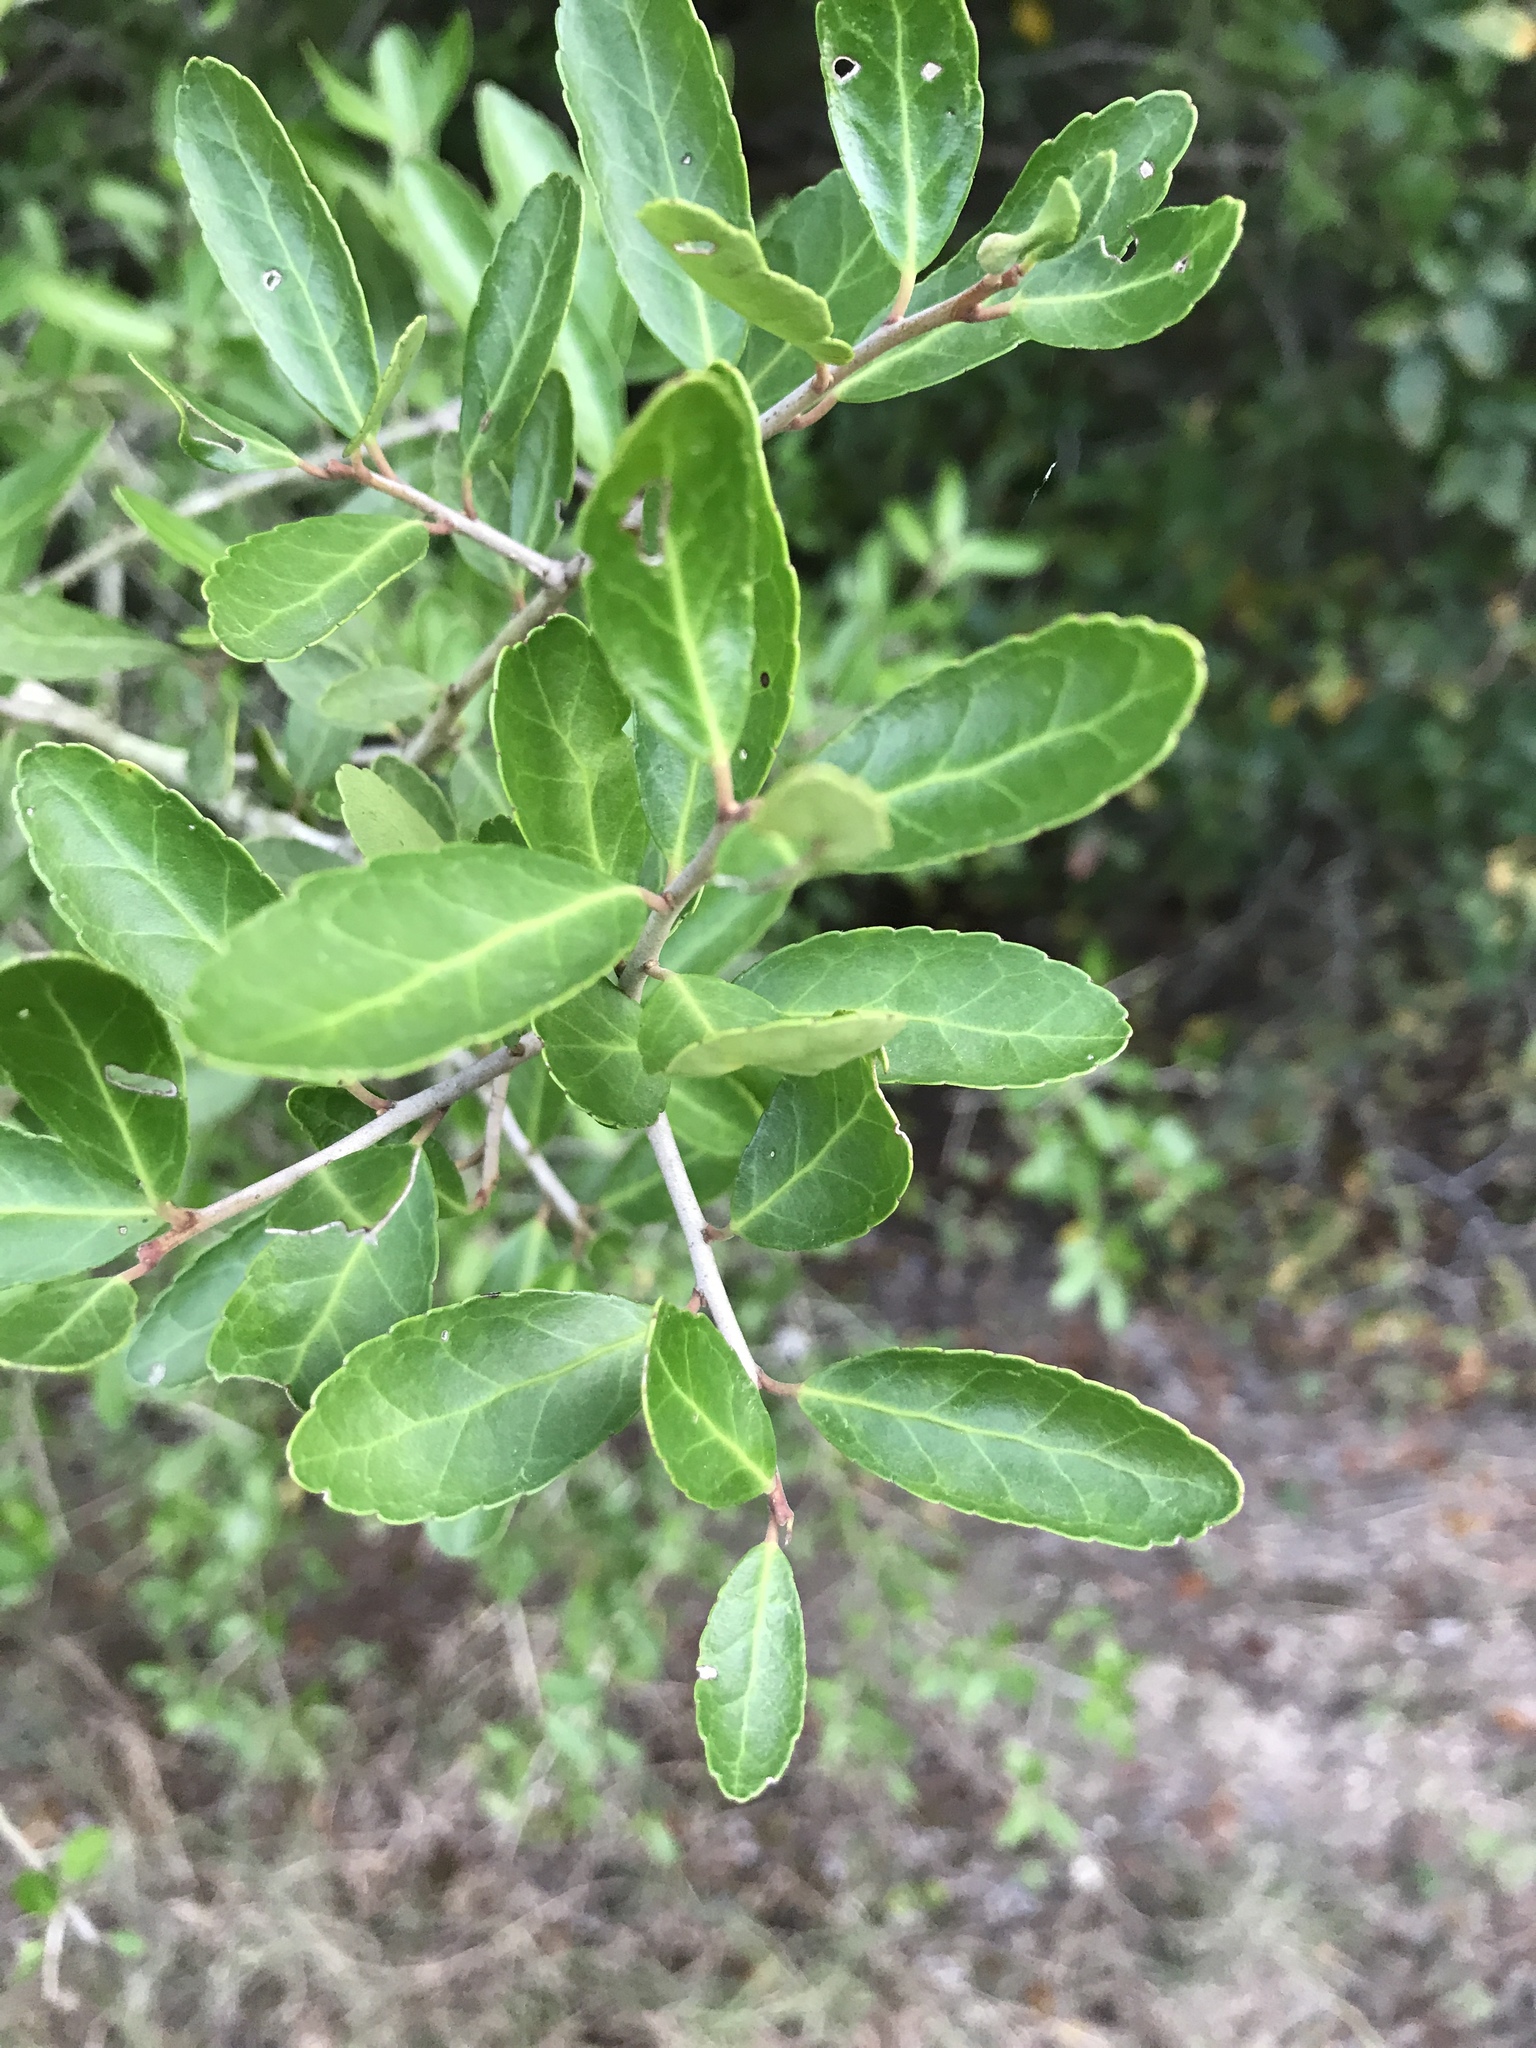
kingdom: Plantae
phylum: Tracheophyta
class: Magnoliopsida
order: Aquifoliales
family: Aquifoliaceae
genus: Ilex
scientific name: Ilex vomitoria
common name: Yaupon holly
